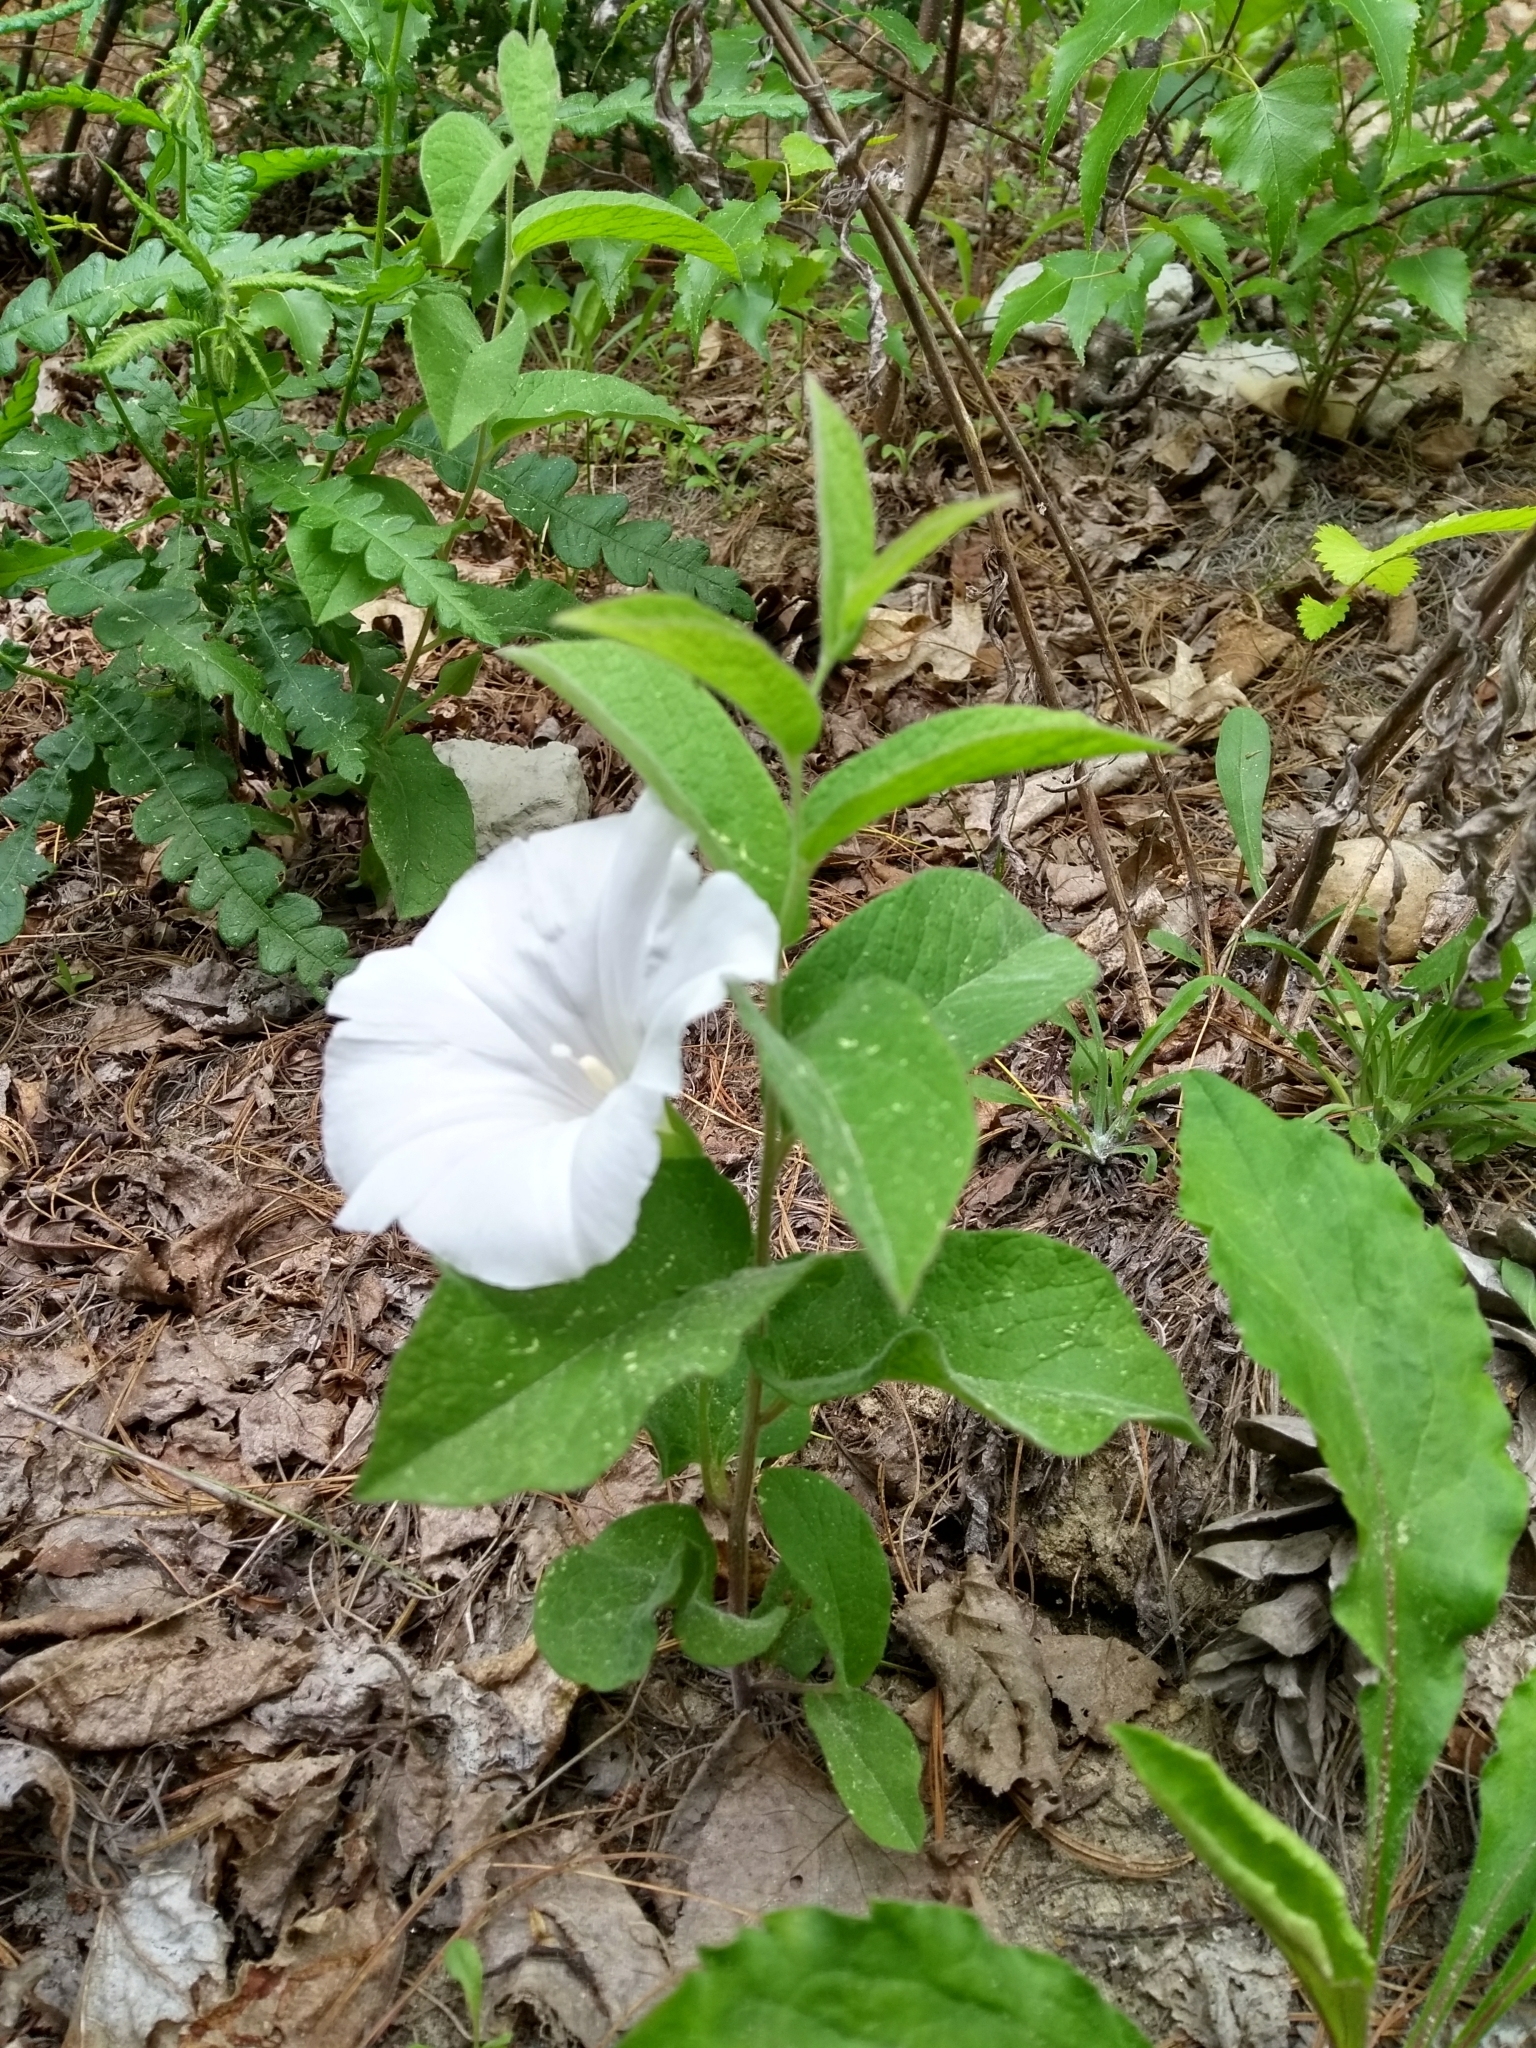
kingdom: Plantae
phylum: Tracheophyta
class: Magnoliopsida
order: Solanales
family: Convolvulaceae
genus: Calystegia
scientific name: Calystegia spithamaea
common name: Dwarf bindweed
